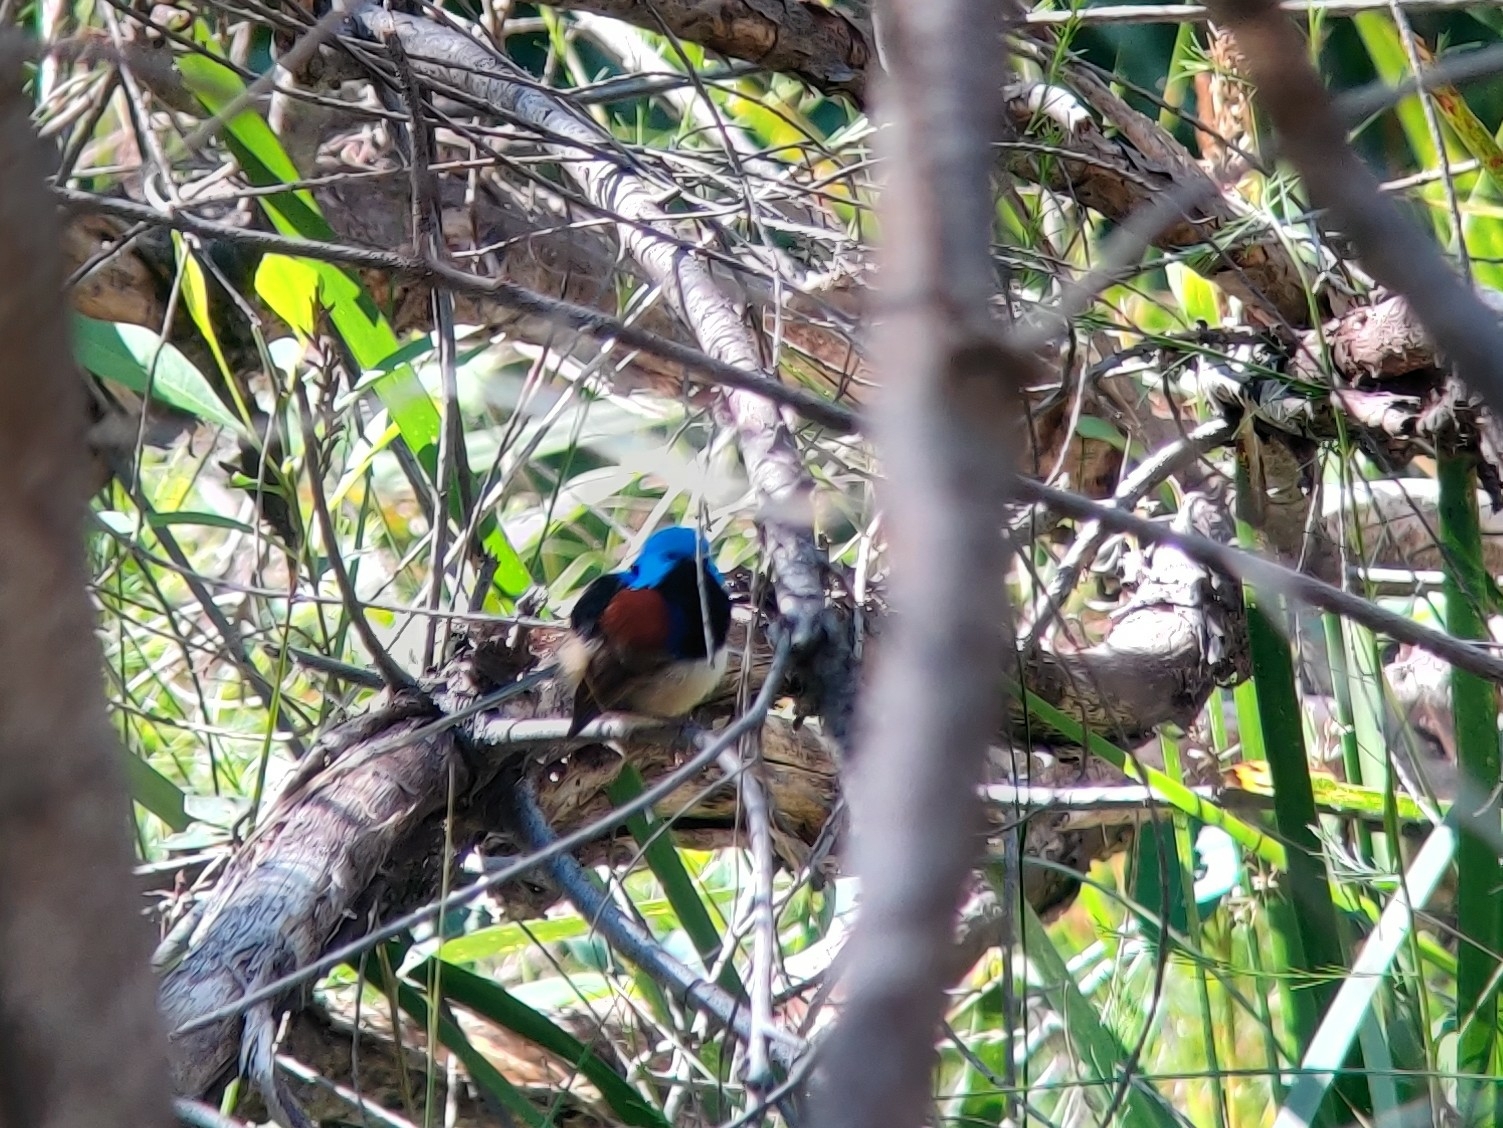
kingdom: Animalia
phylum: Chordata
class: Aves
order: Passeriformes
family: Maluridae
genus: Malurus
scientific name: Malurus lamberti
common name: Variegated fairywren
